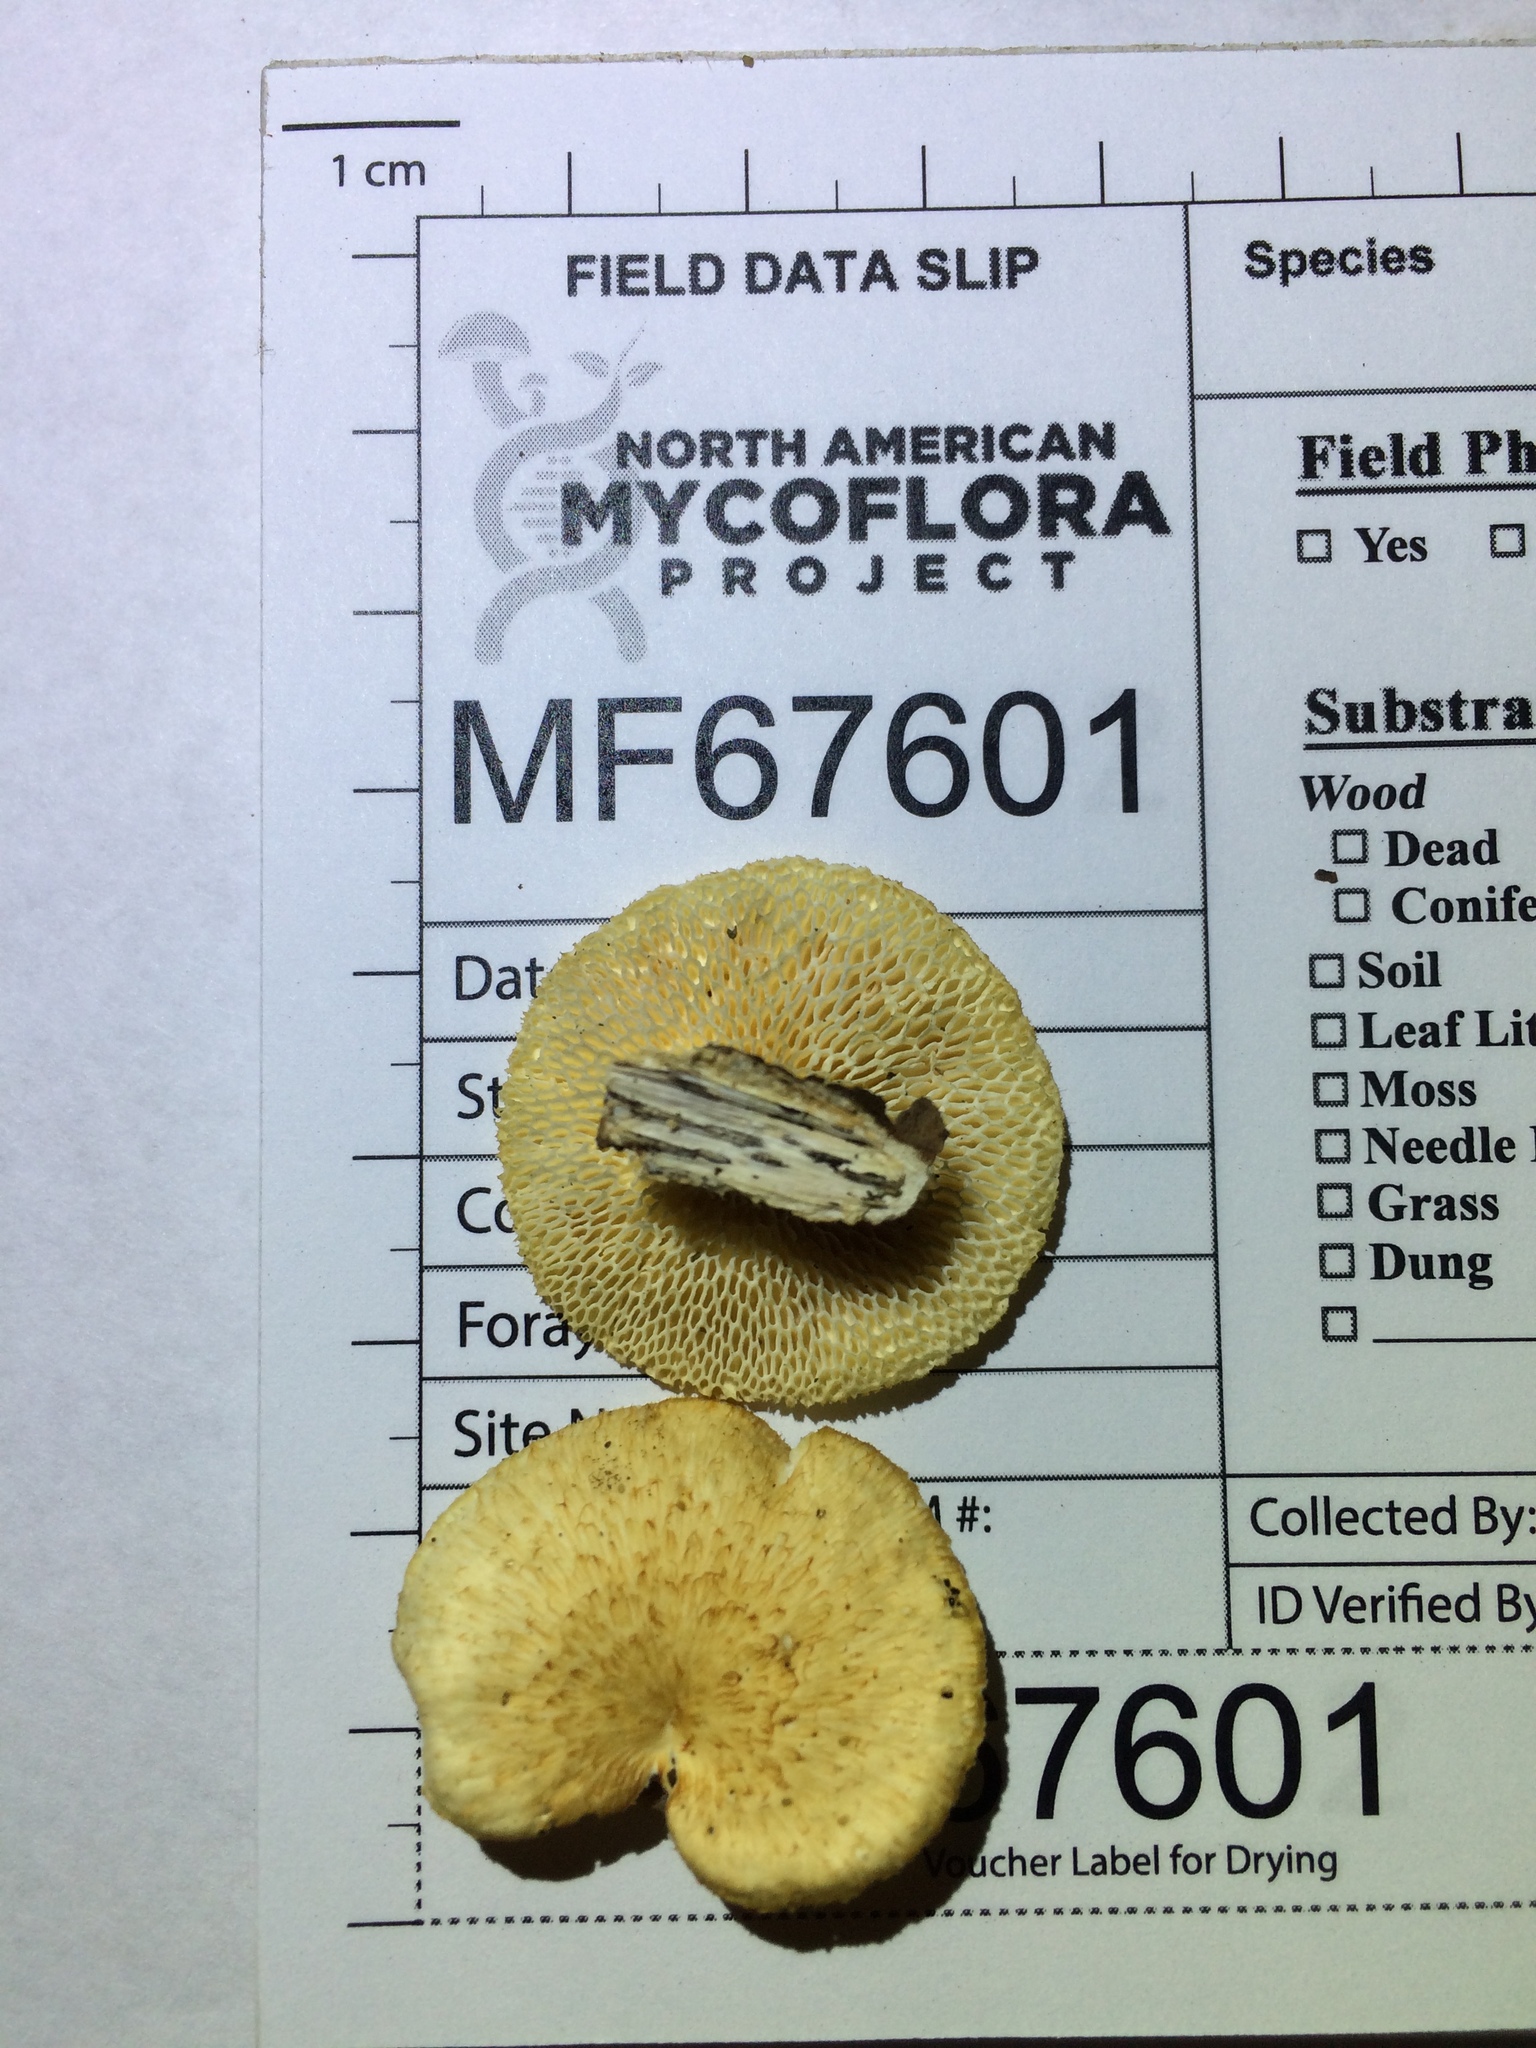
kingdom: Fungi
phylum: Basidiomycota
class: Agaricomycetes
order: Polyporales
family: Polyporaceae
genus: Neofavolus
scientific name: Neofavolus alveolaris
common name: Hexagonal-pored polypore
